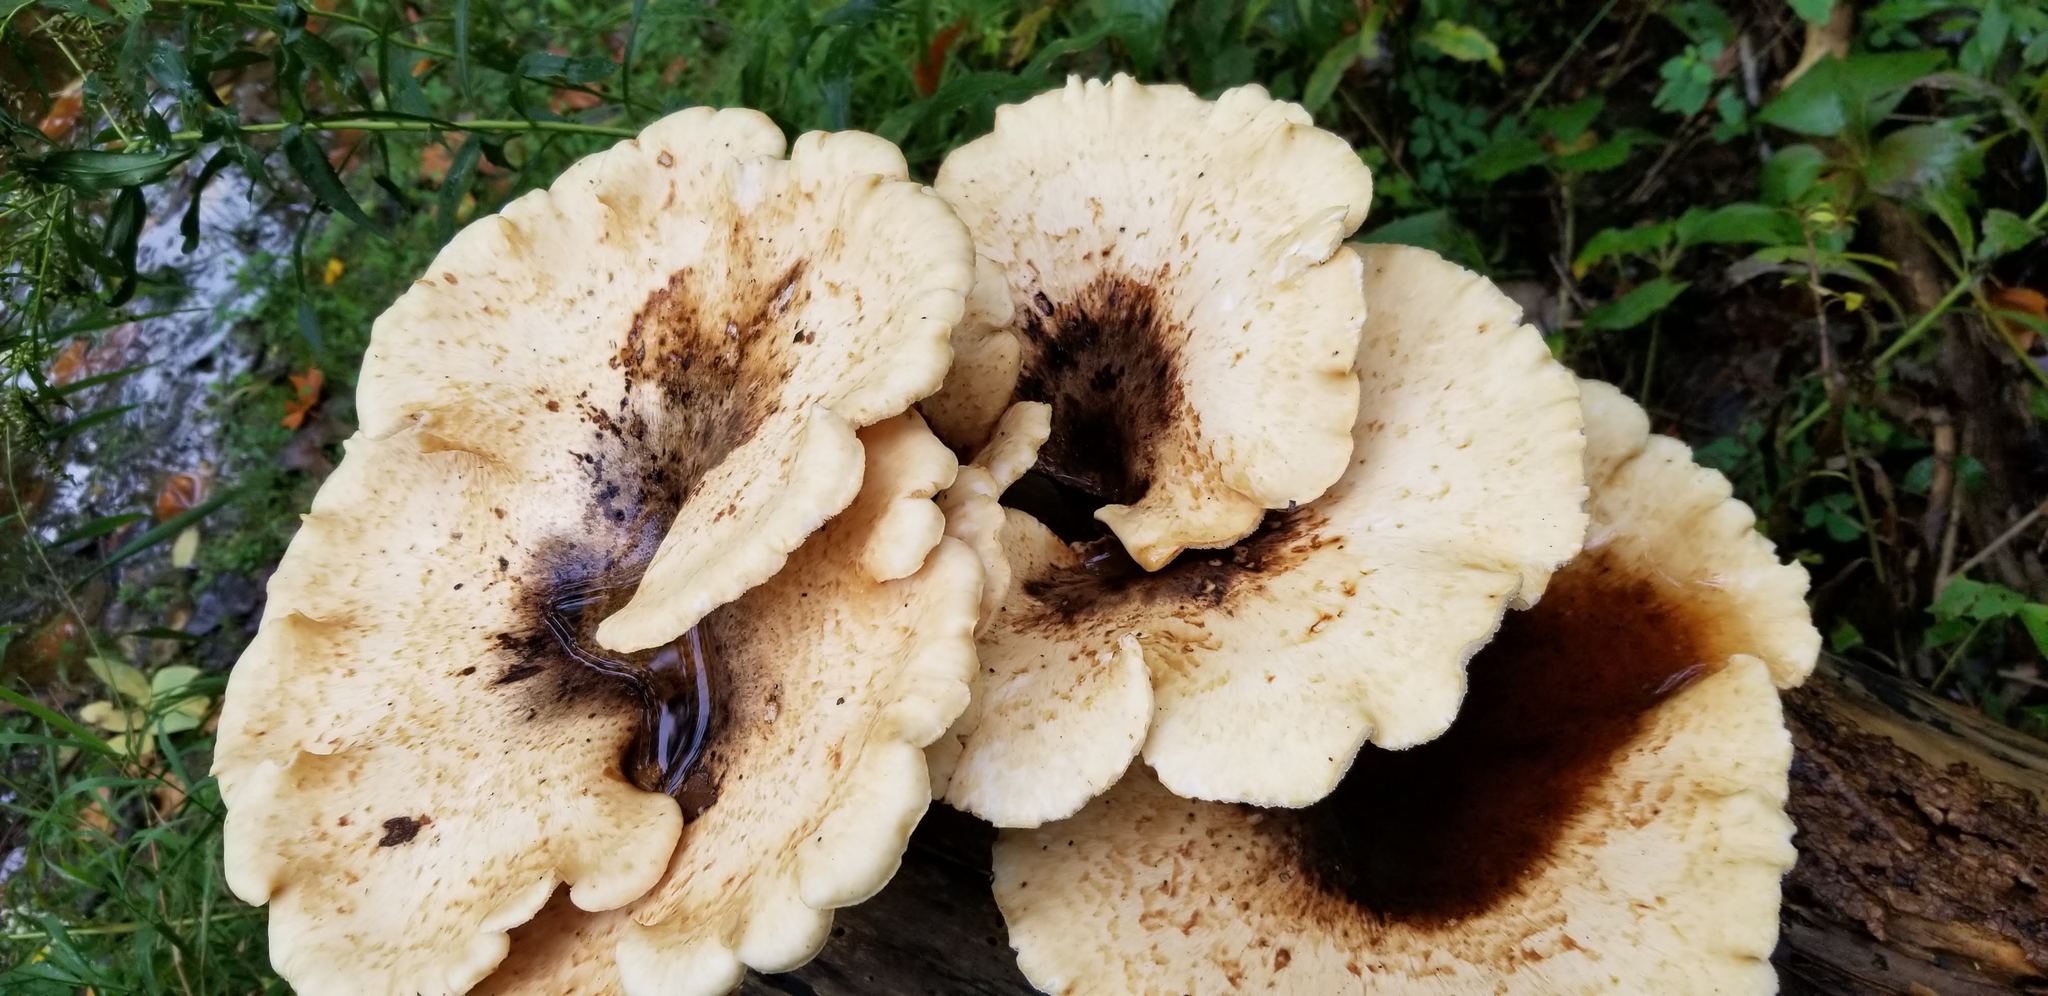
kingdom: Fungi
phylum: Basidiomycota
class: Agaricomycetes
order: Polyporales
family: Polyporaceae
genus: Cerioporus
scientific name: Cerioporus squamosus
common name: Dryad's saddle
